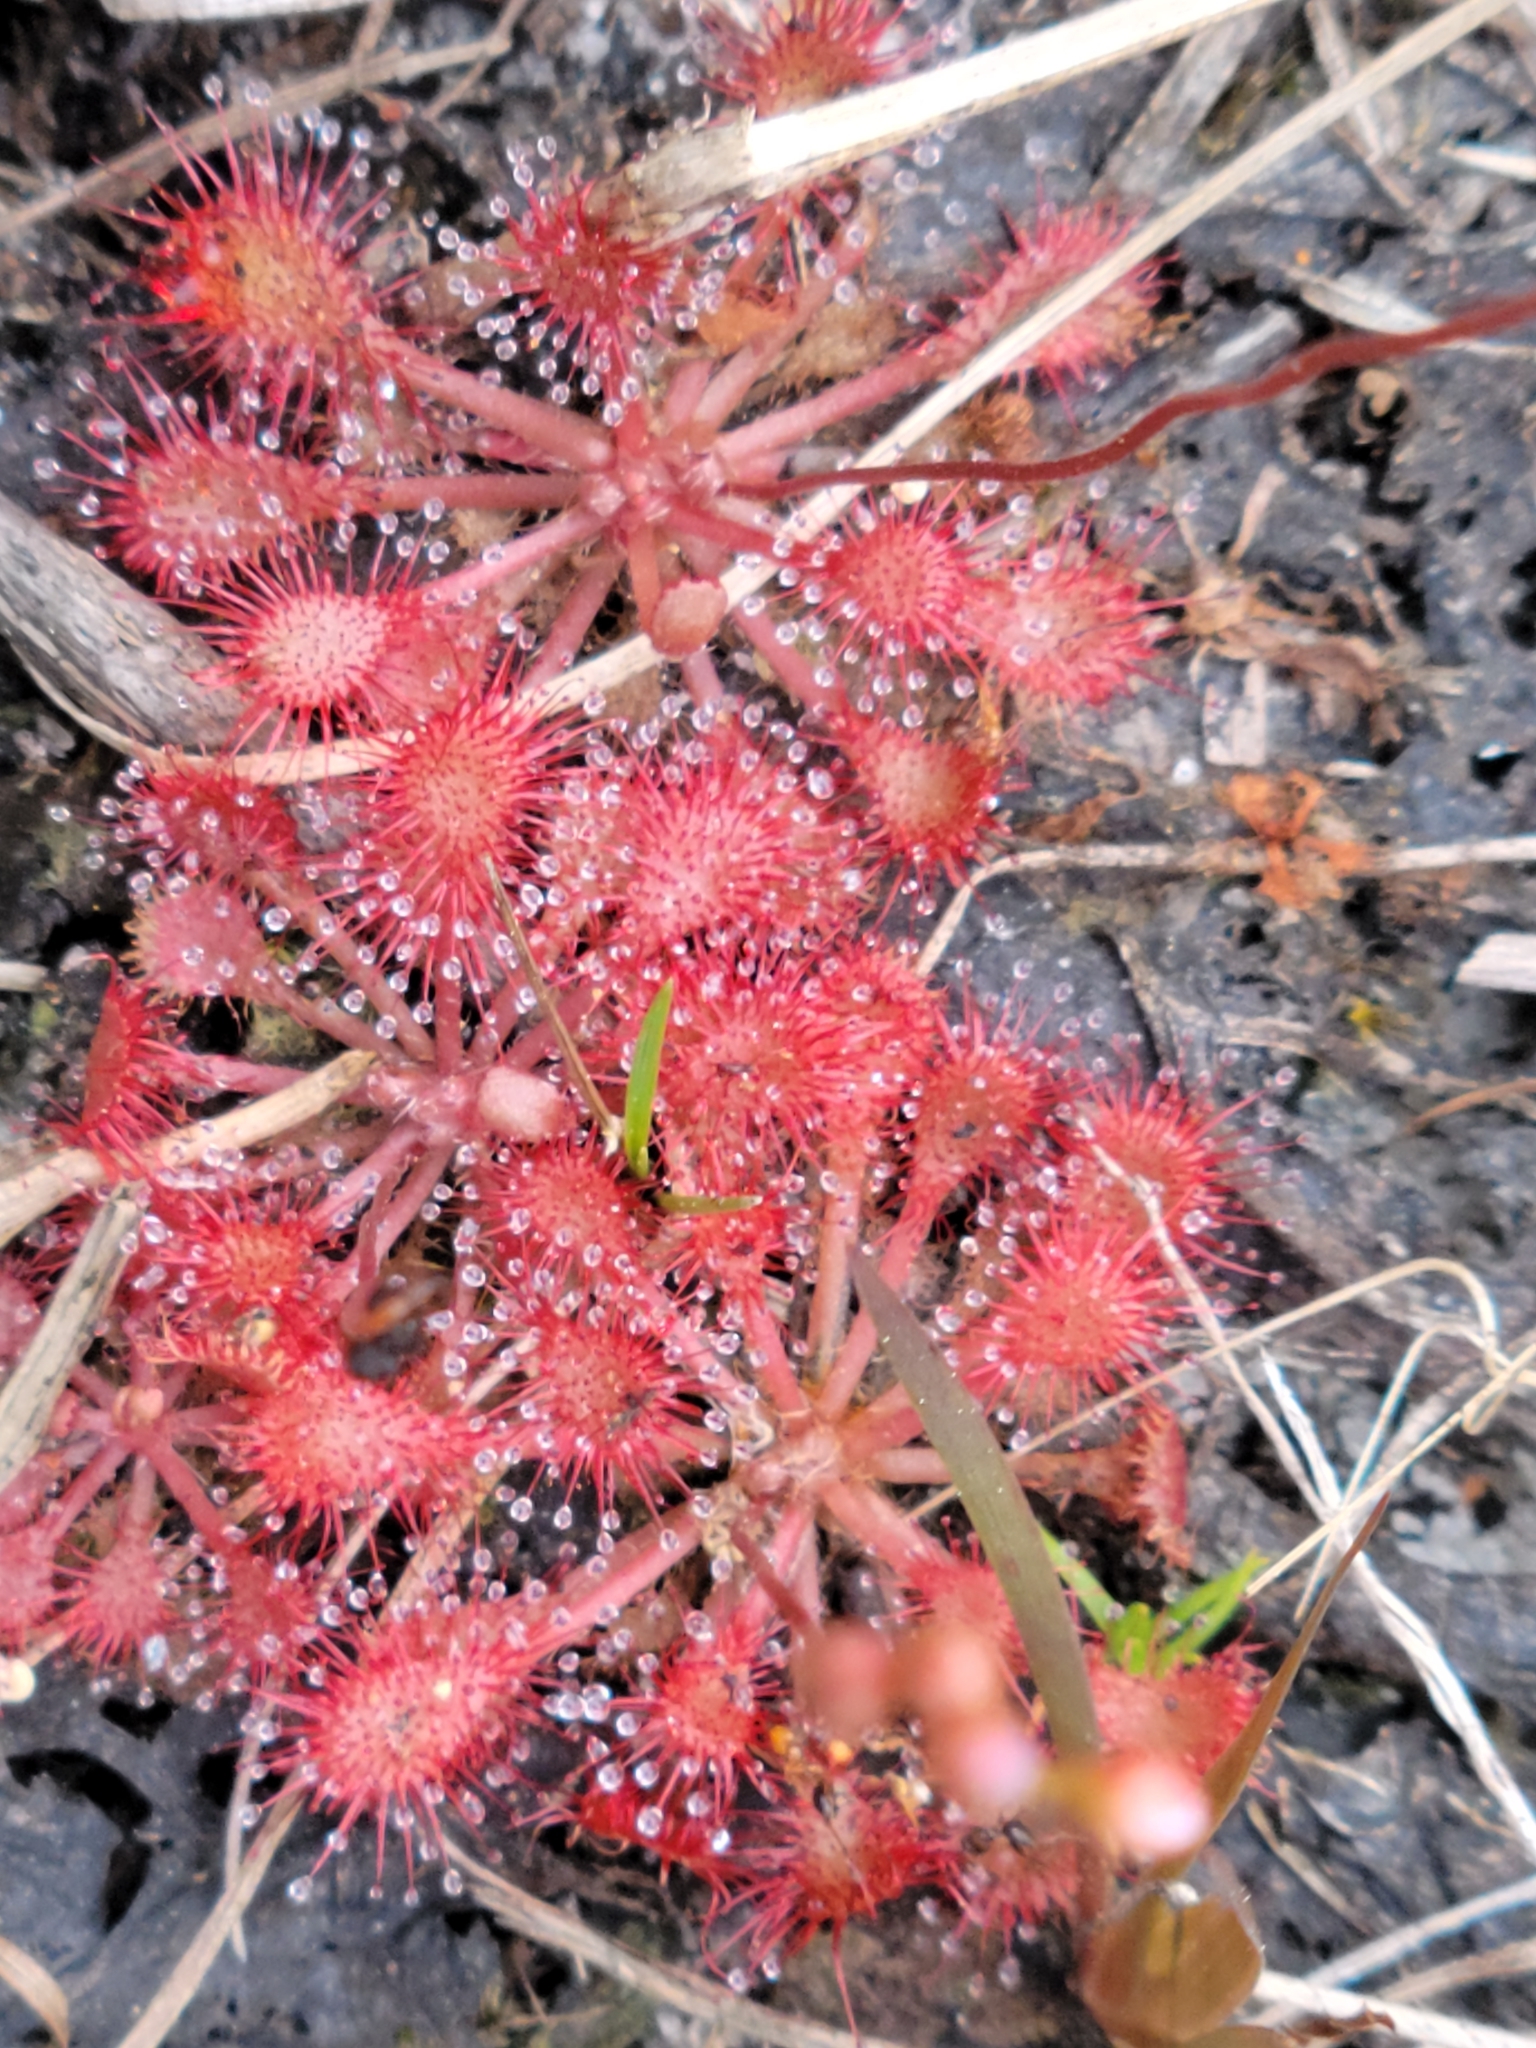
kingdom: Plantae
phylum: Tracheophyta
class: Magnoliopsida
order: Caryophyllales
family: Droseraceae
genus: Drosera
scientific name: Drosera capillaris
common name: Pink sundew
